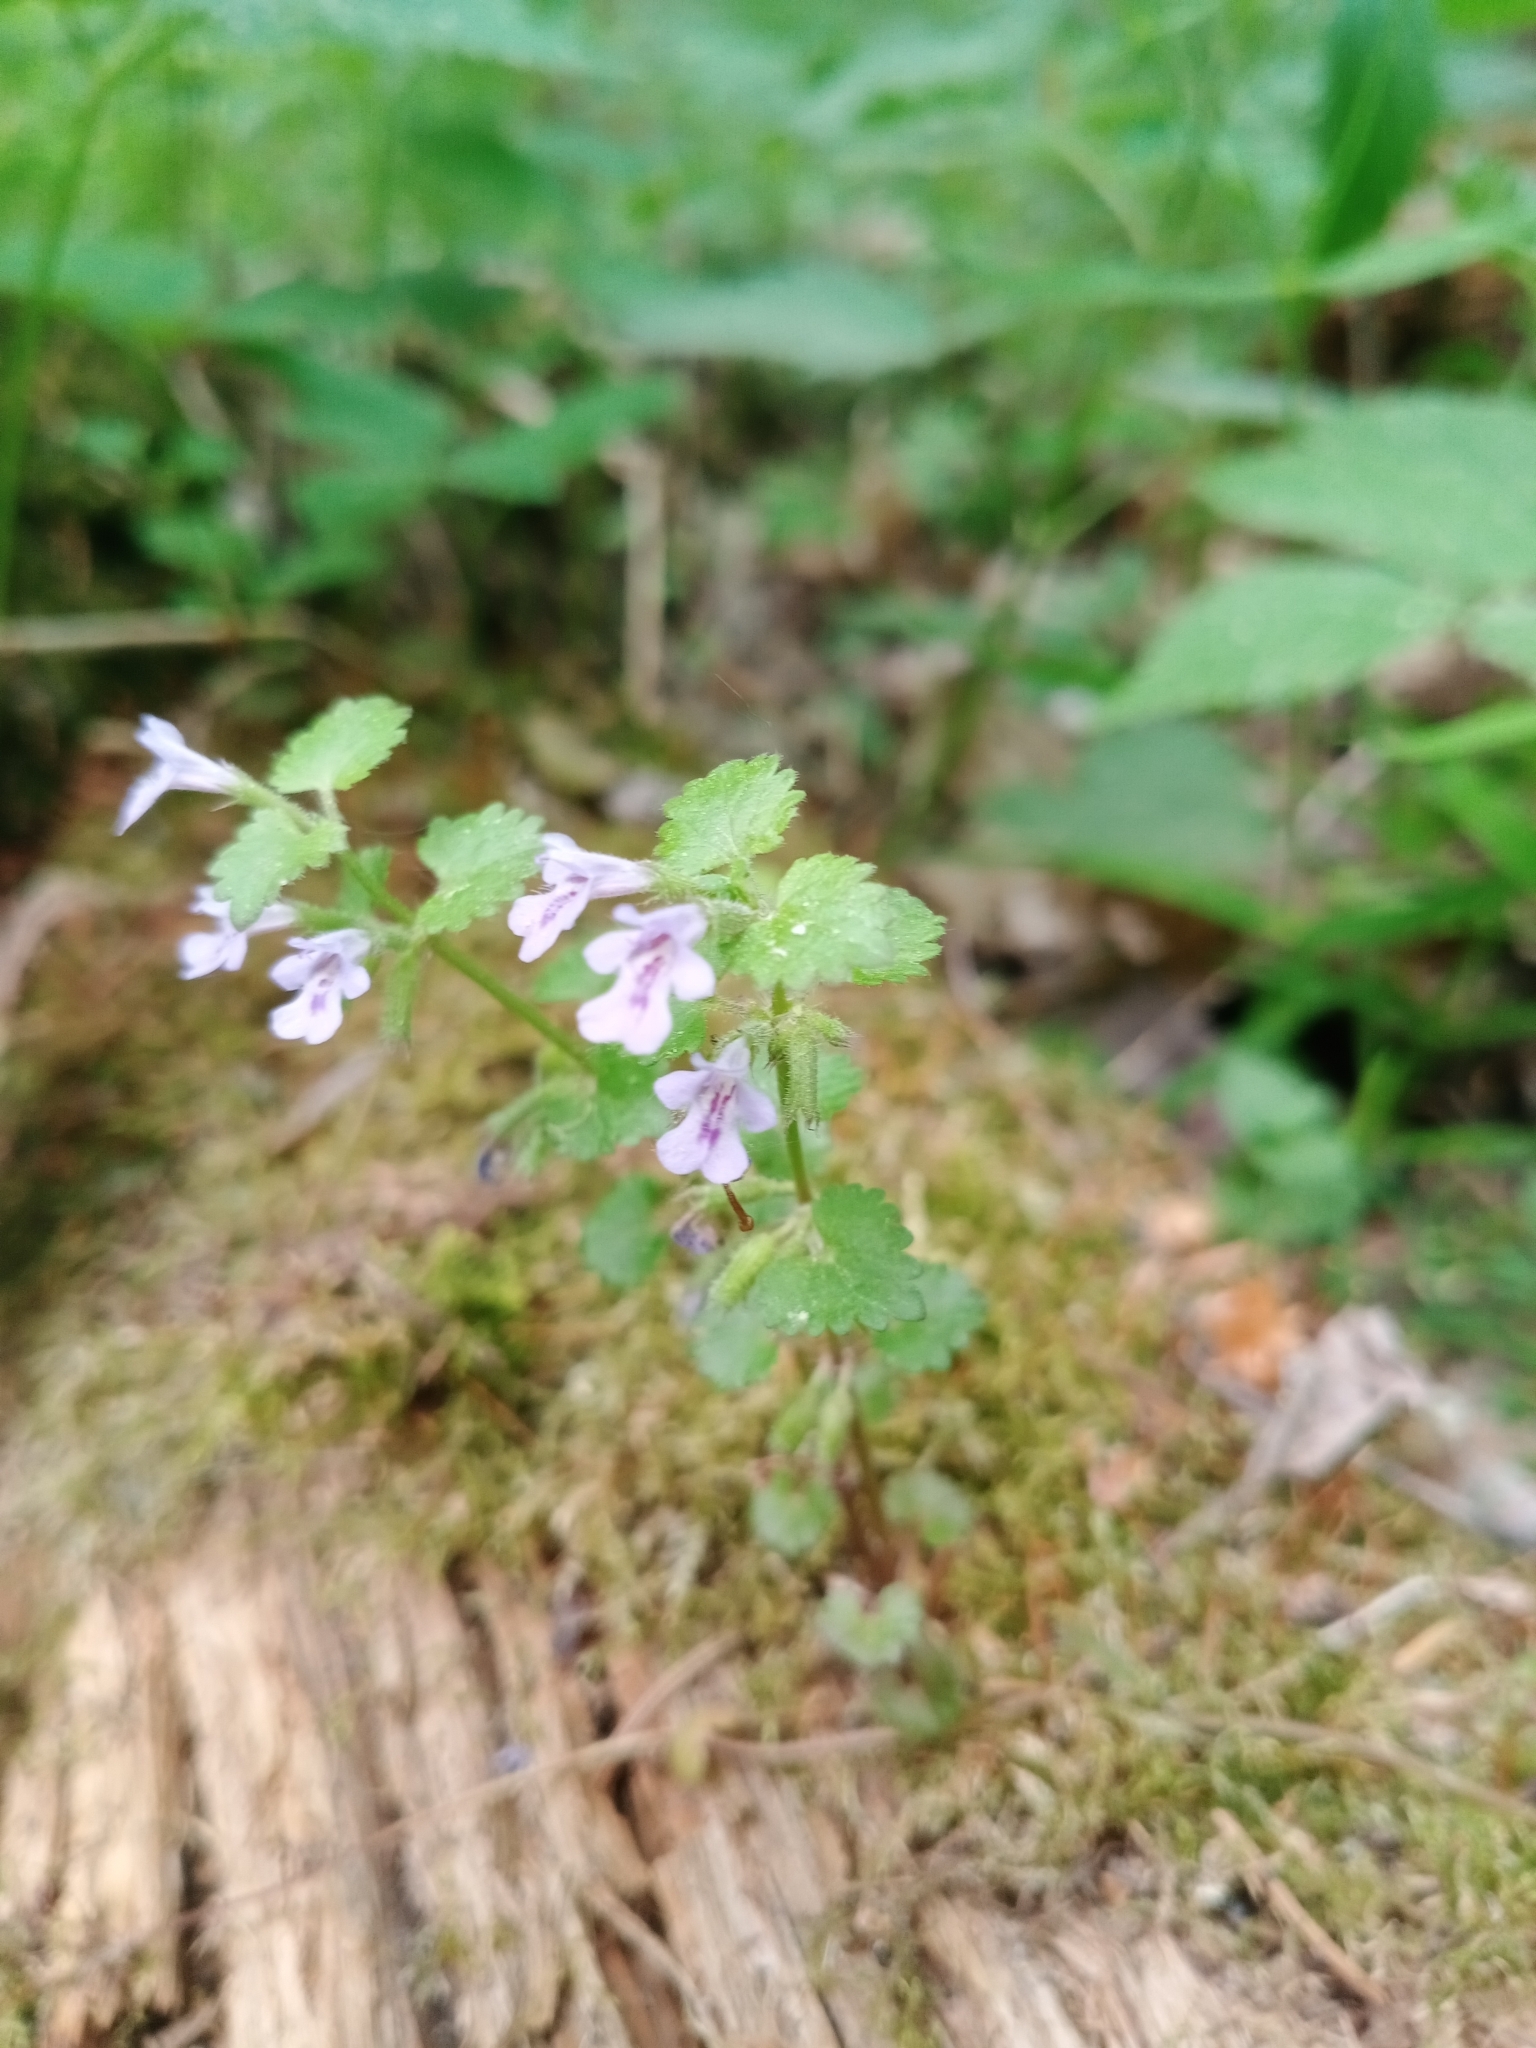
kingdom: Plantae
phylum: Tracheophyta
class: Magnoliopsida
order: Lamiales
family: Lamiaceae
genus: Glechoma
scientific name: Glechoma hederacea
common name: Ground ivy
